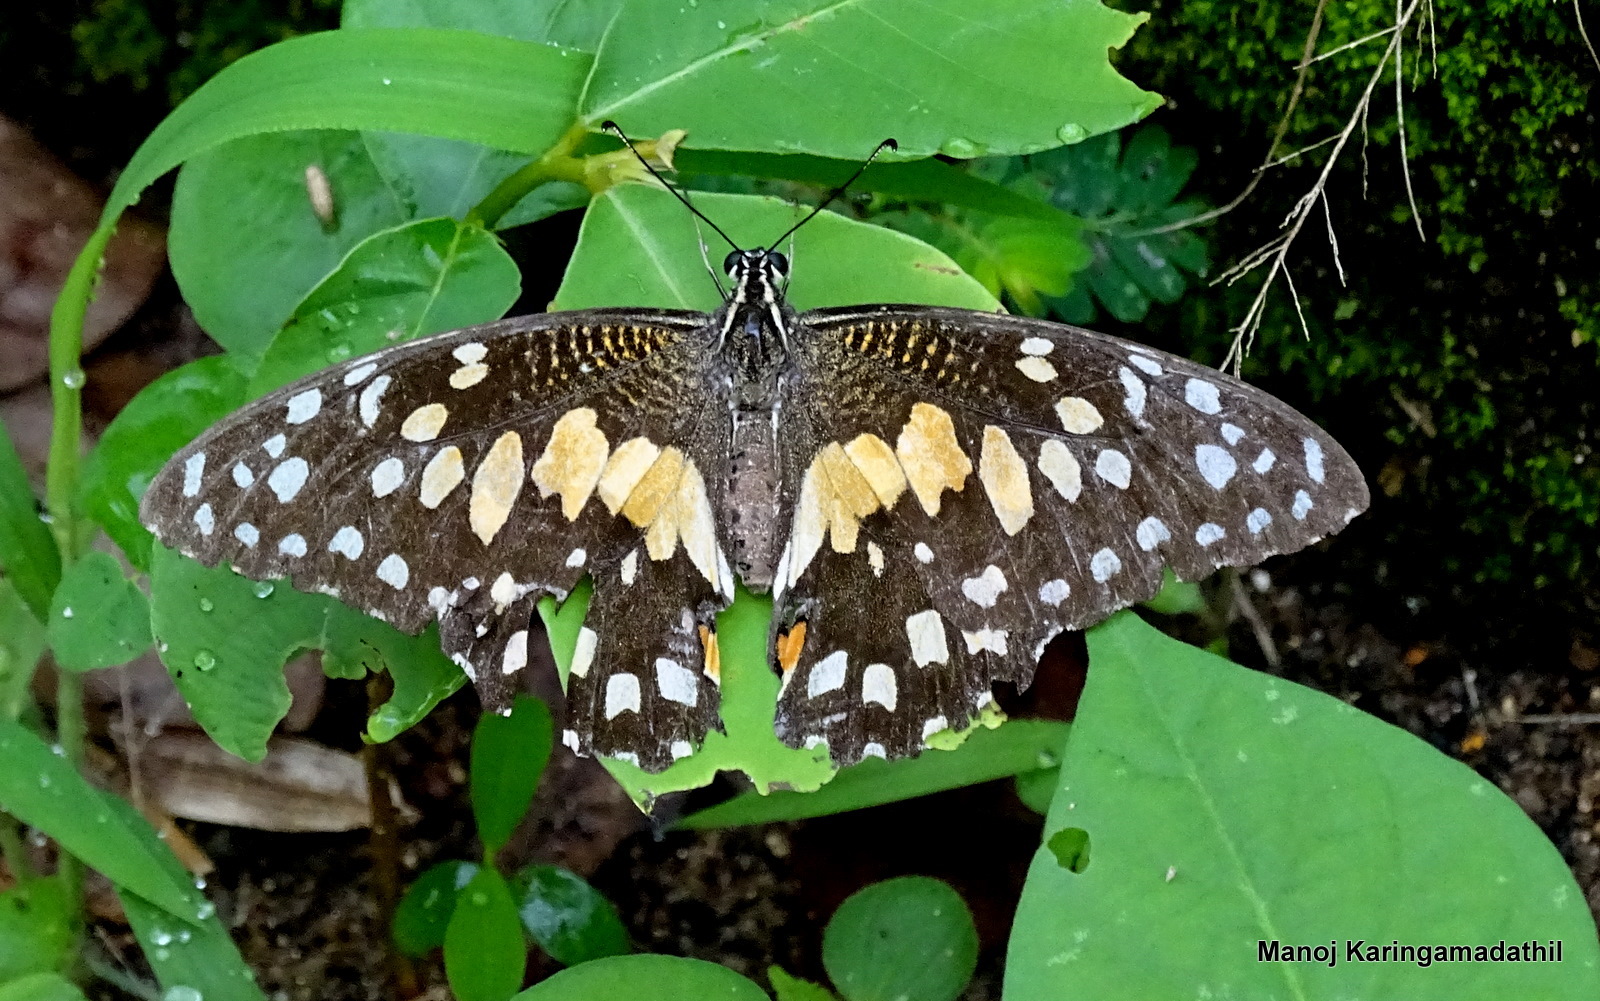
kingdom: Animalia
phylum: Arthropoda
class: Insecta
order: Lepidoptera
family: Papilionidae
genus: Papilio
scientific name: Papilio demoleus
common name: Lime butterfly
